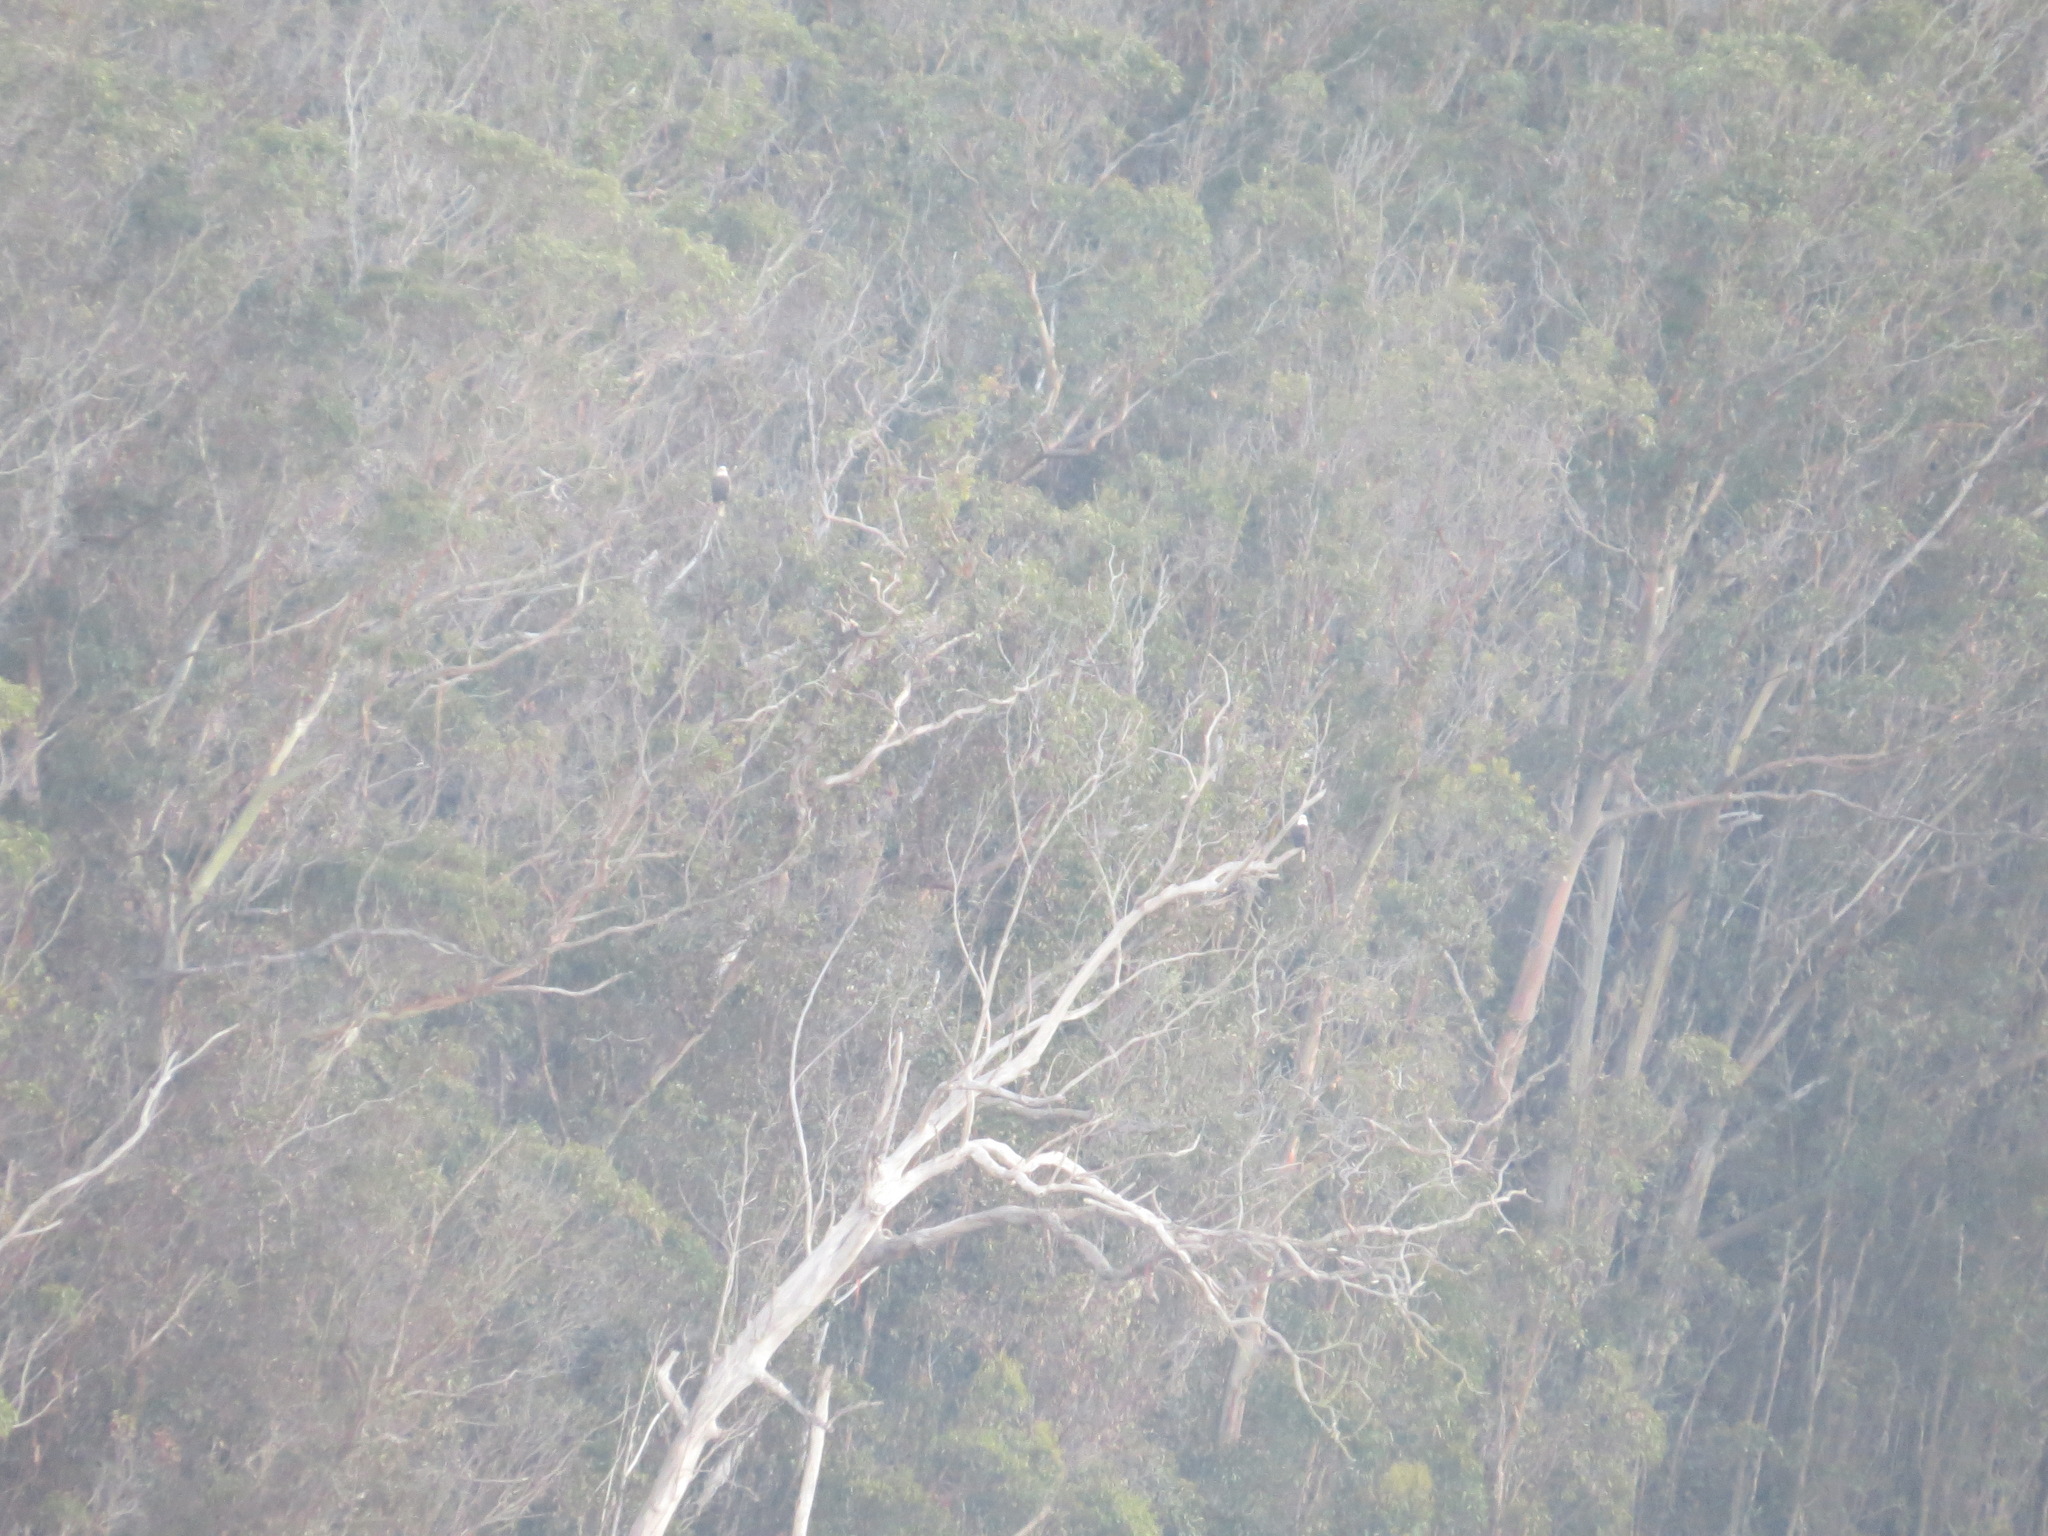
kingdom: Animalia
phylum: Chordata
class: Aves
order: Accipitriformes
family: Accipitridae
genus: Haliaeetus
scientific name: Haliaeetus leucocephalus
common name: Bald eagle
